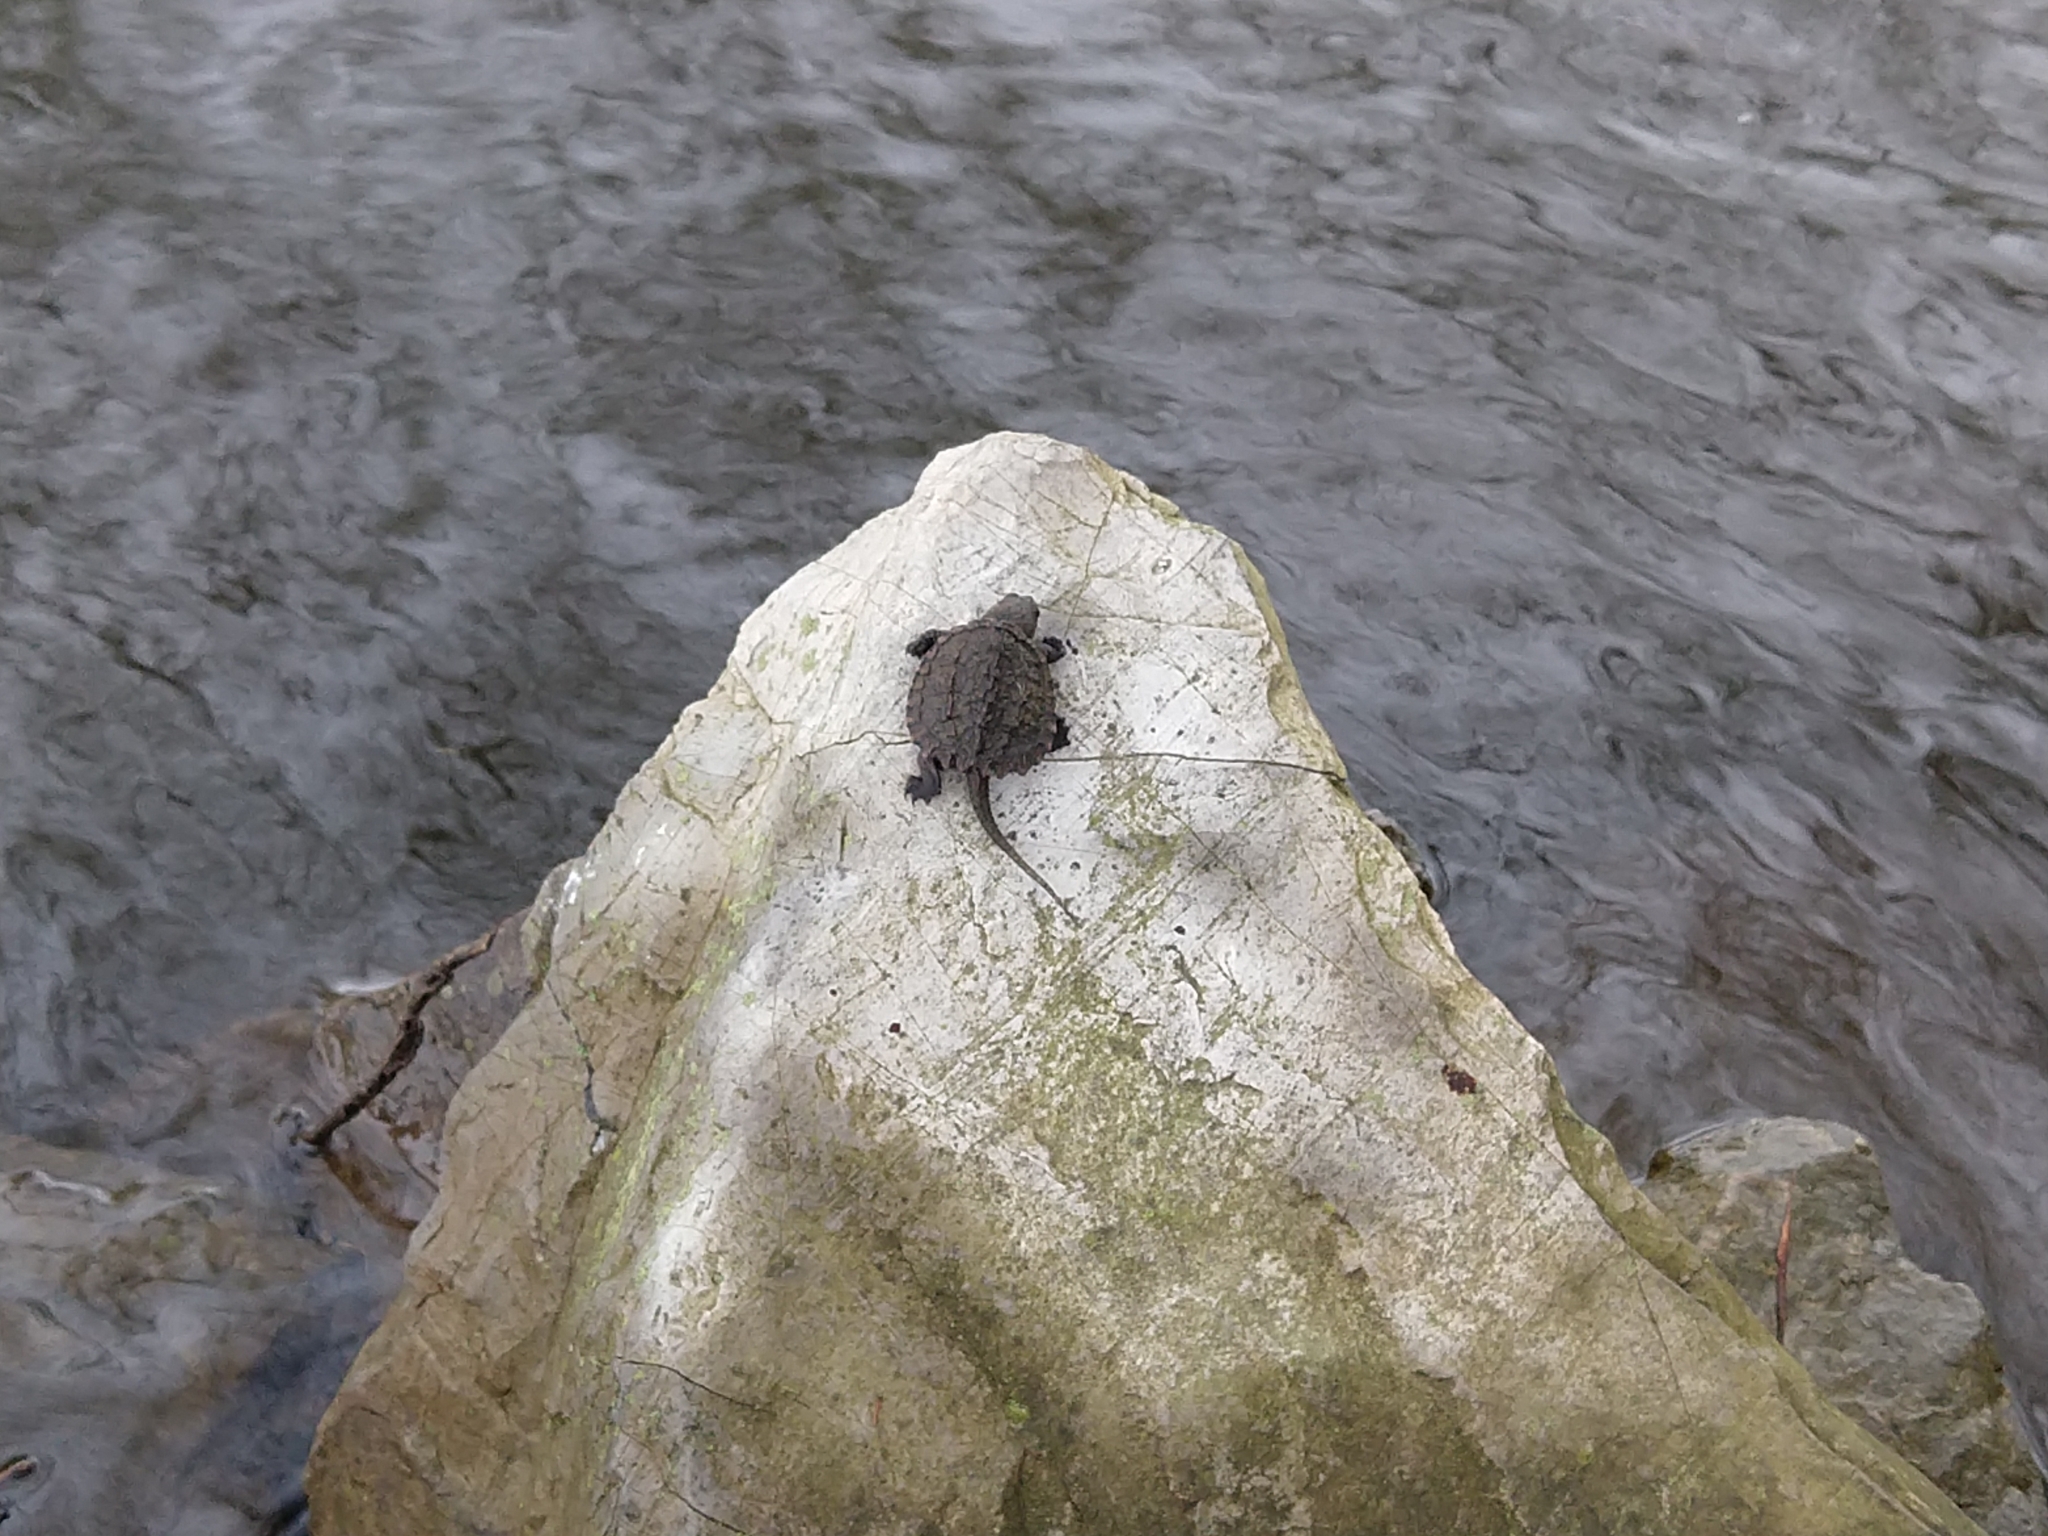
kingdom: Animalia
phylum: Chordata
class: Testudines
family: Chelydridae
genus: Chelydra
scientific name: Chelydra serpentina
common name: Common snapping turtle
